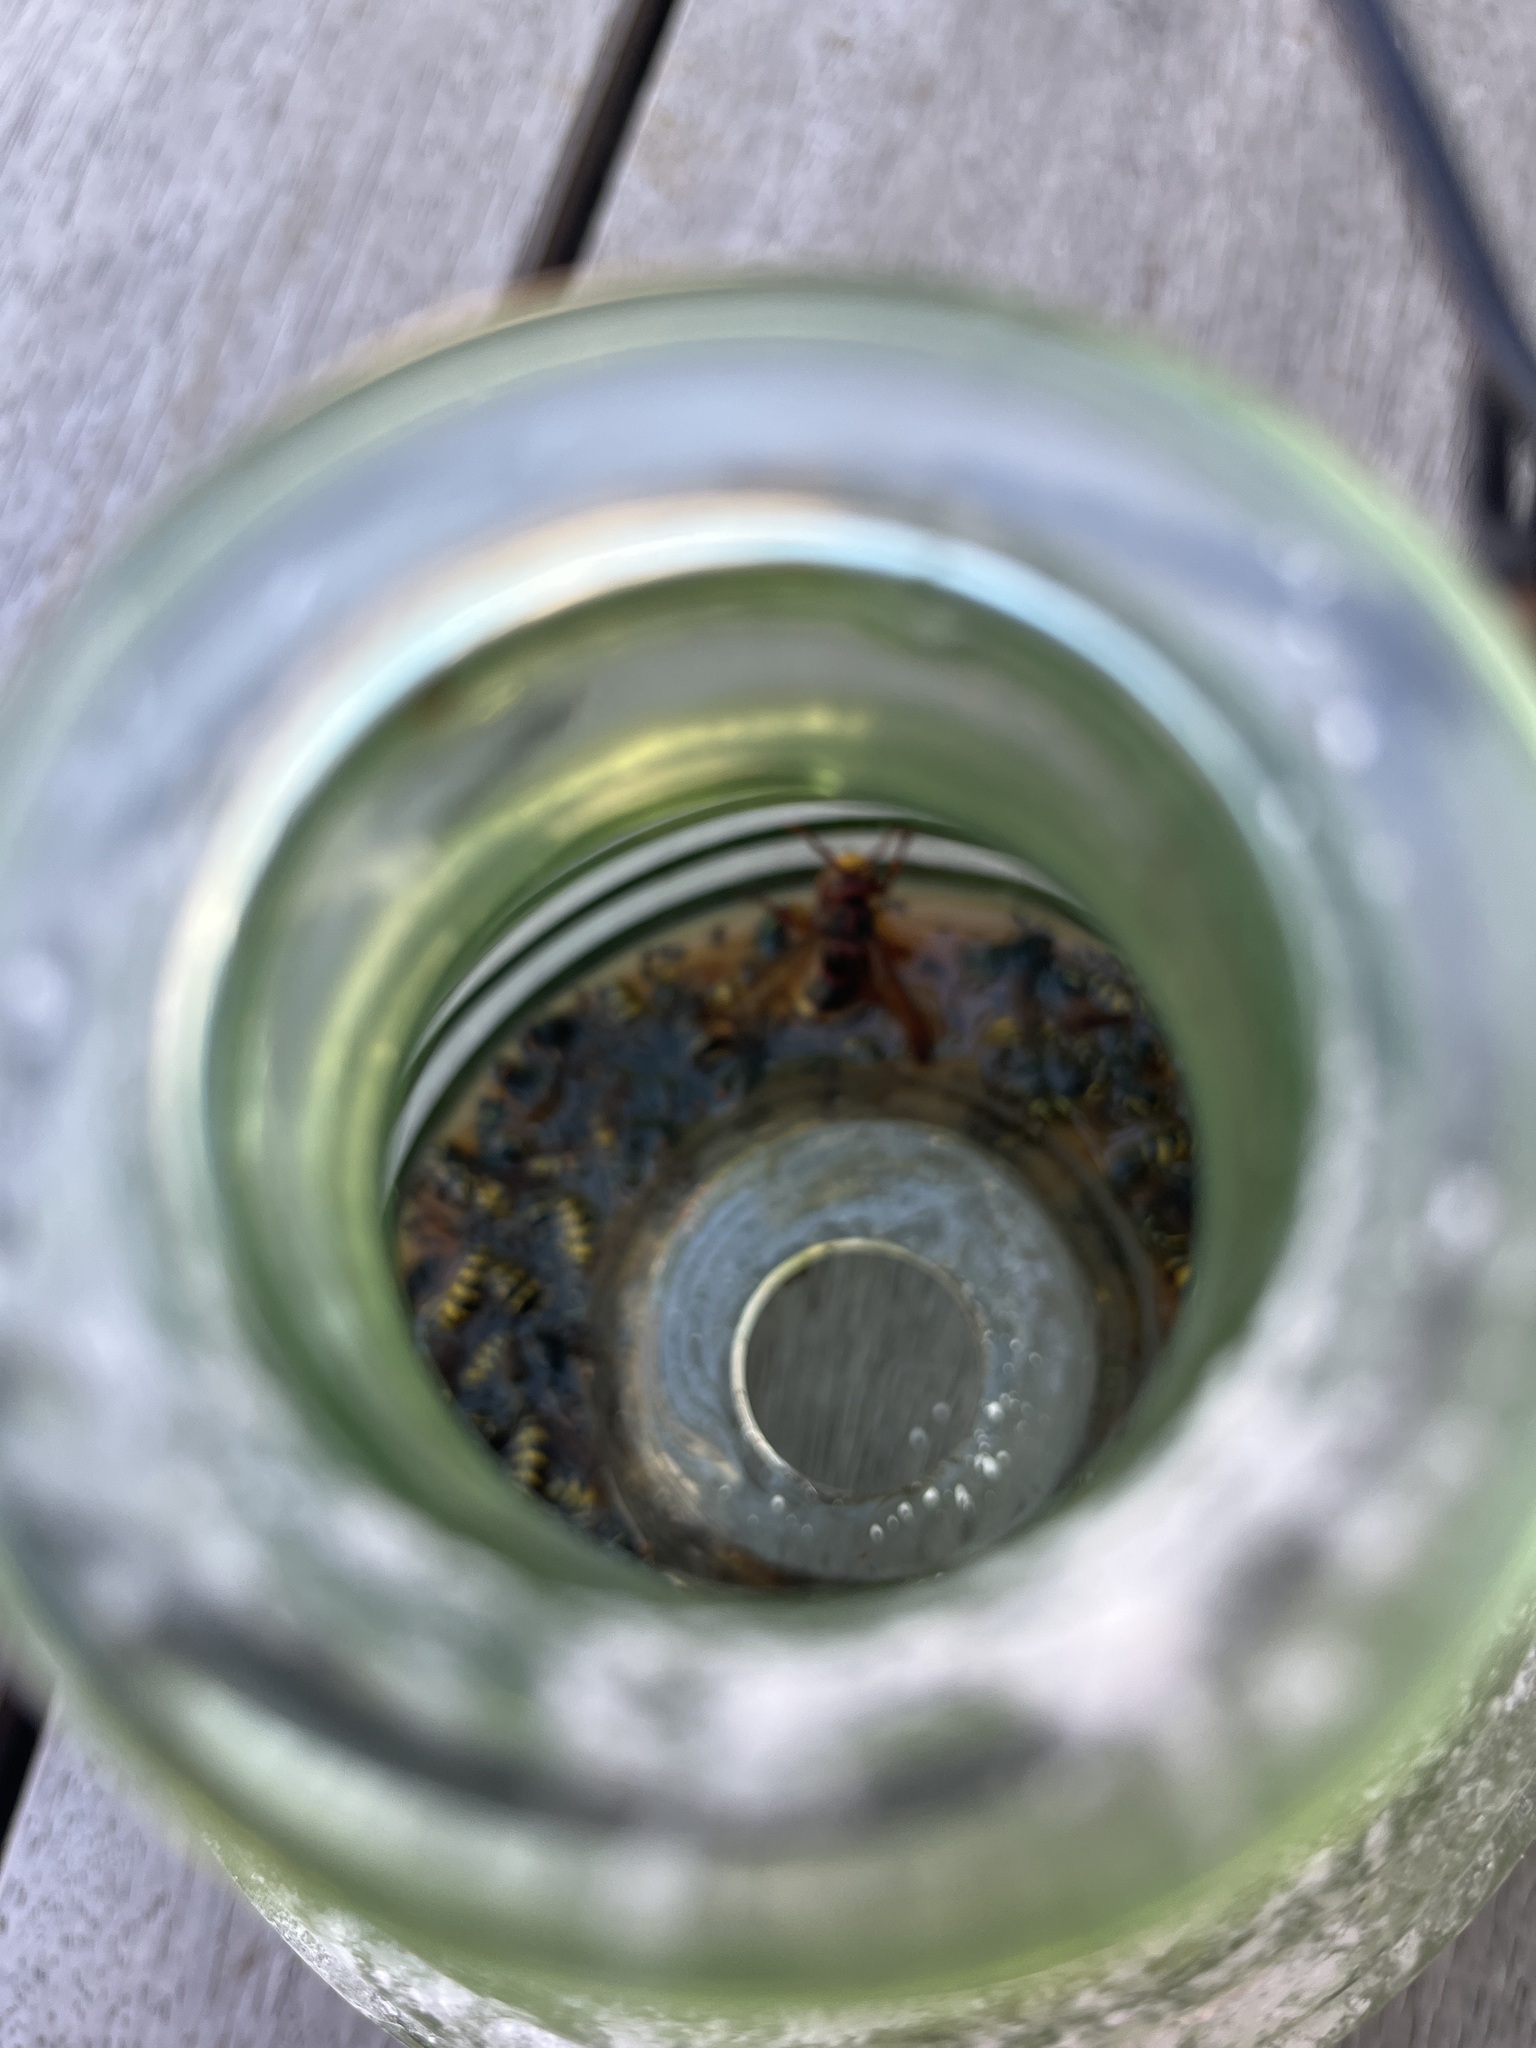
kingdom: Animalia
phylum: Arthropoda
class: Insecta
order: Hymenoptera
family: Vespidae
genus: Vespa
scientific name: Vespa crabro
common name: Hornet
